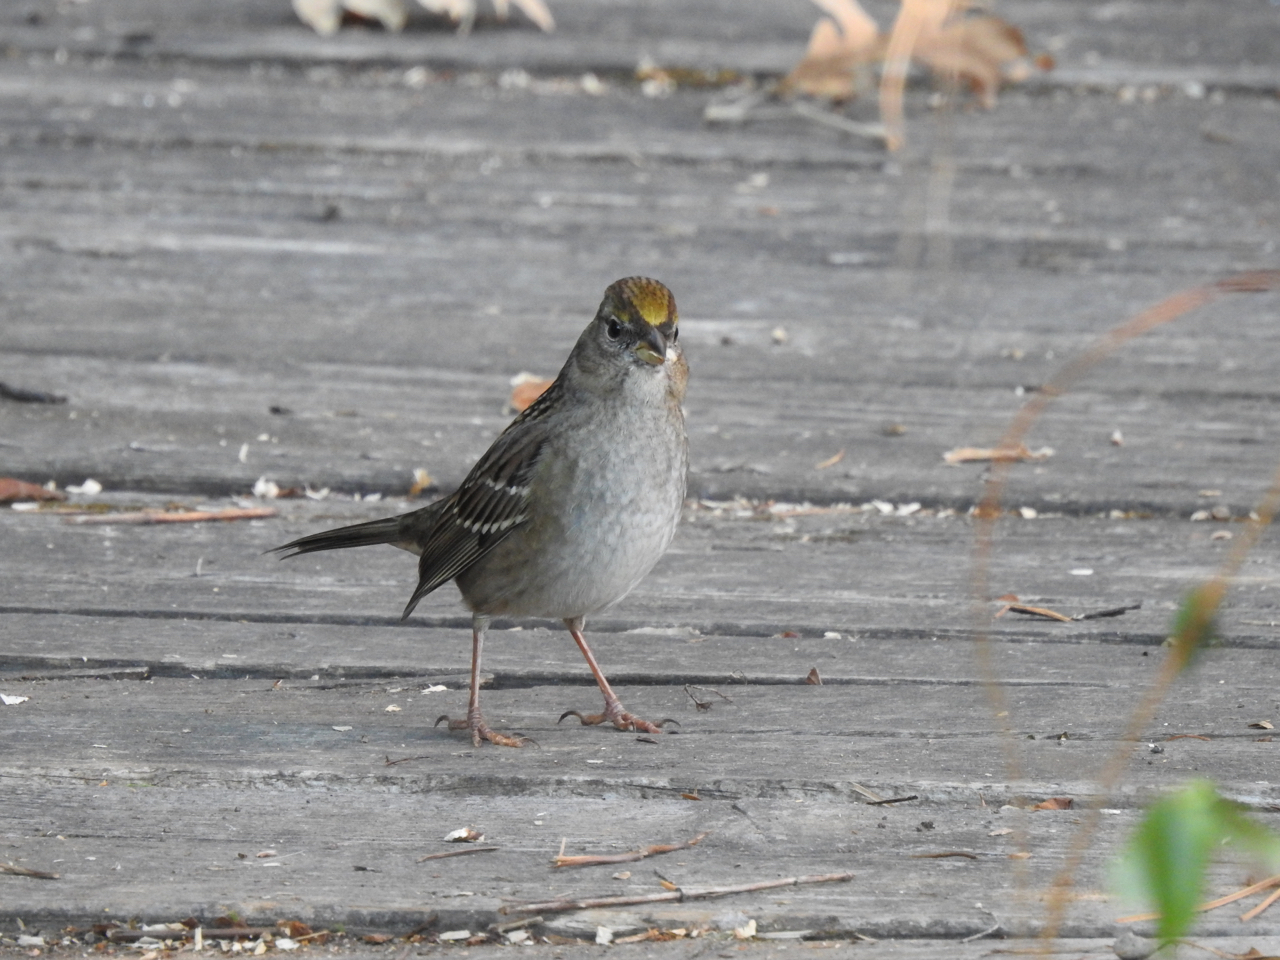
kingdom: Animalia
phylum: Chordata
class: Aves
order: Passeriformes
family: Passerellidae
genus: Zonotrichia
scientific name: Zonotrichia atricapilla
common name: Golden-crowned sparrow
